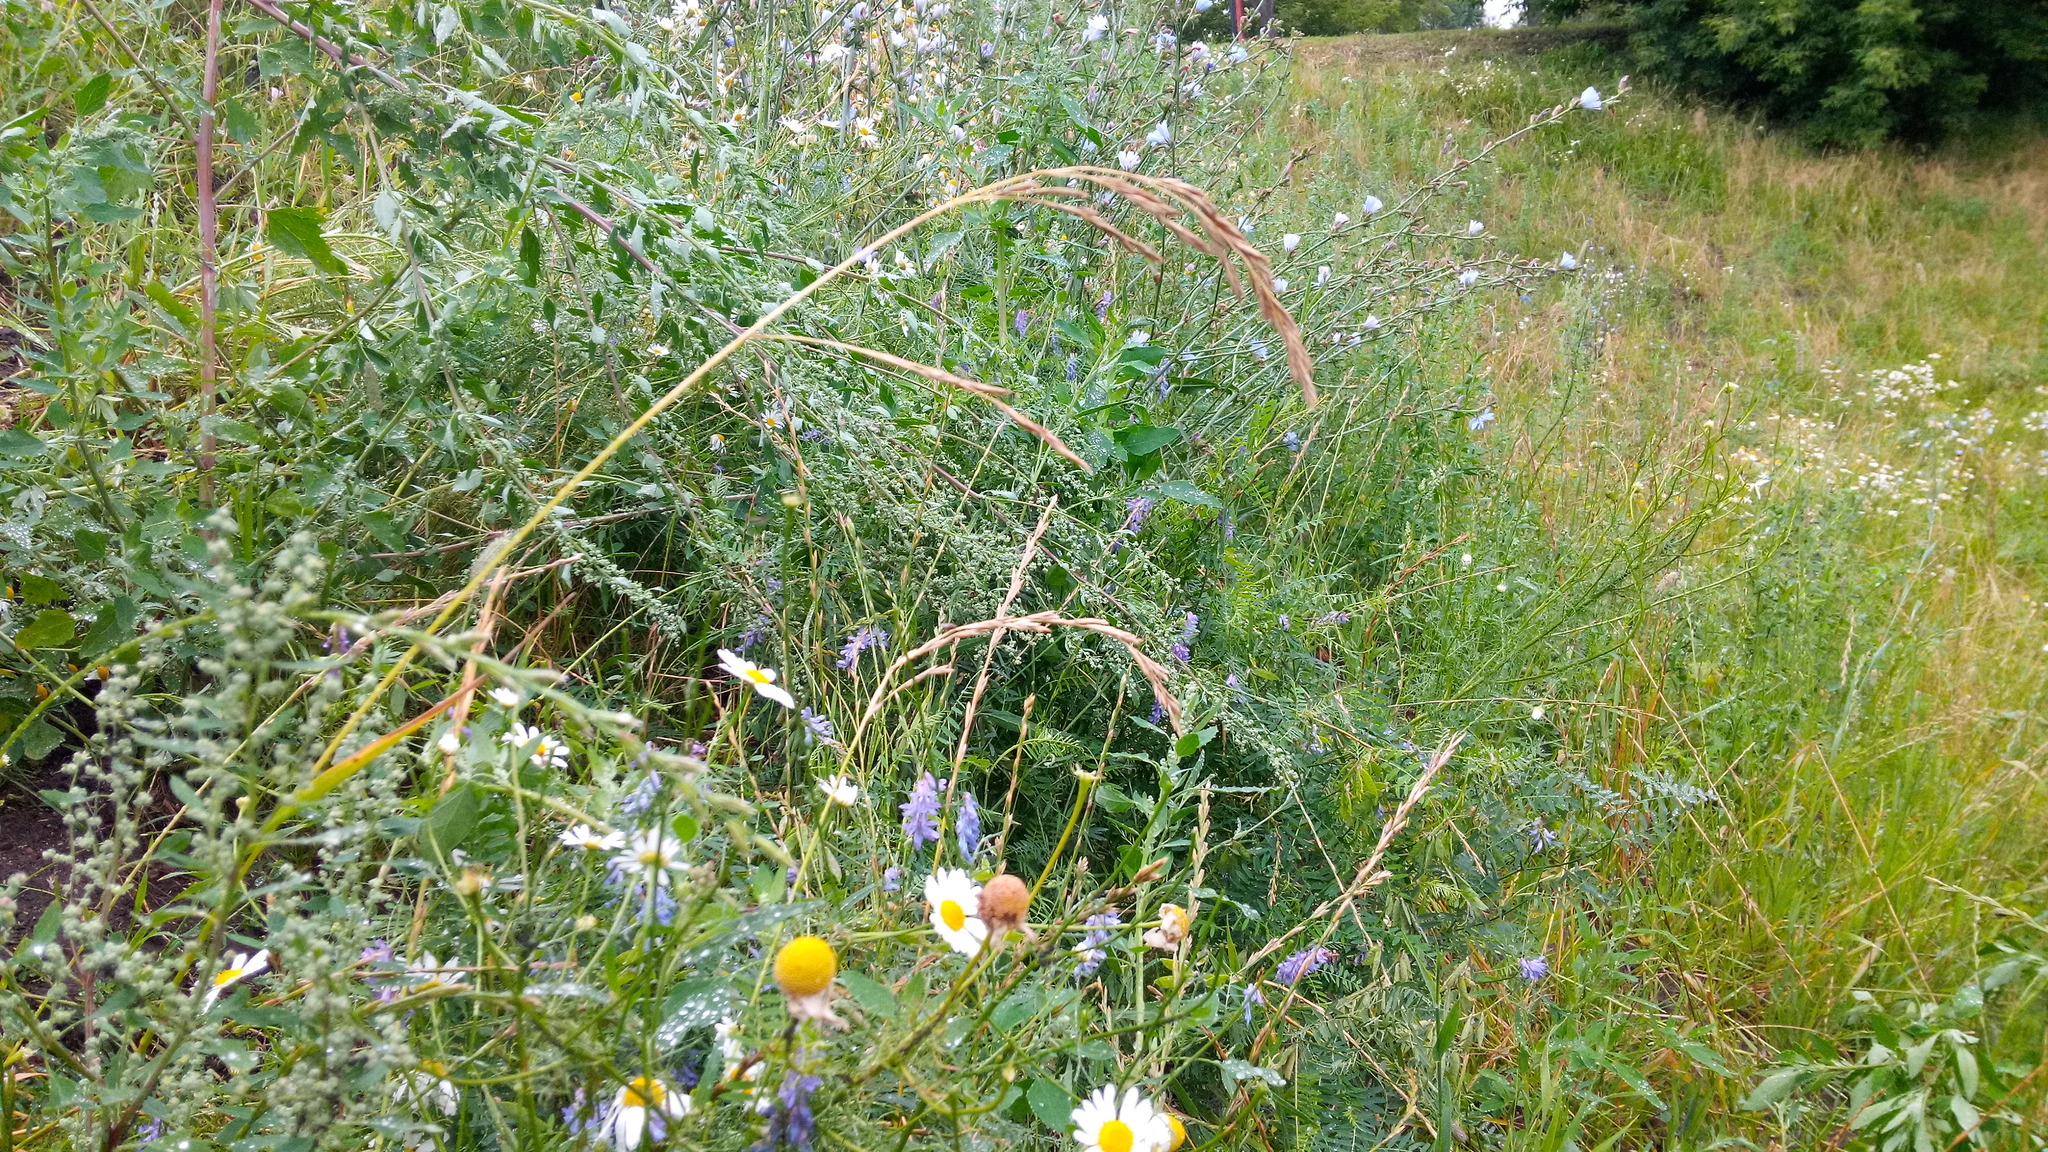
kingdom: Plantae
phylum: Tracheophyta
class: Magnoliopsida
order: Asterales
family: Asteraceae
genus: Cichorium
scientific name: Cichorium intybus
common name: Chicory
